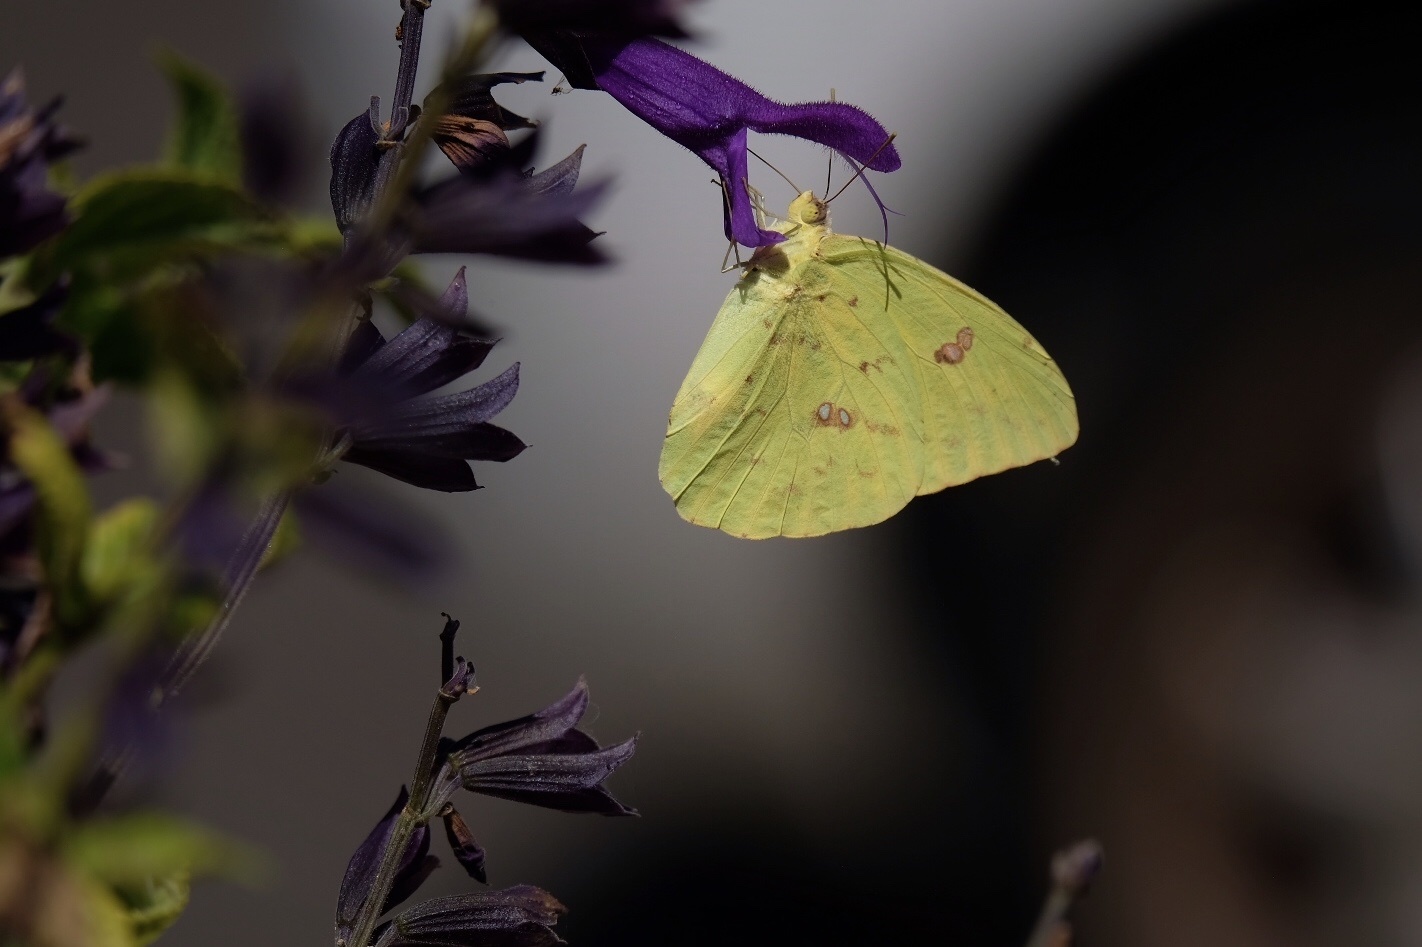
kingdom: Animalia
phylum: Arthropoda
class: Insecta
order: Lepidoptera
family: Pieridae
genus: Phoebis
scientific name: Phoebis sennae
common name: Cloudless sulphur
